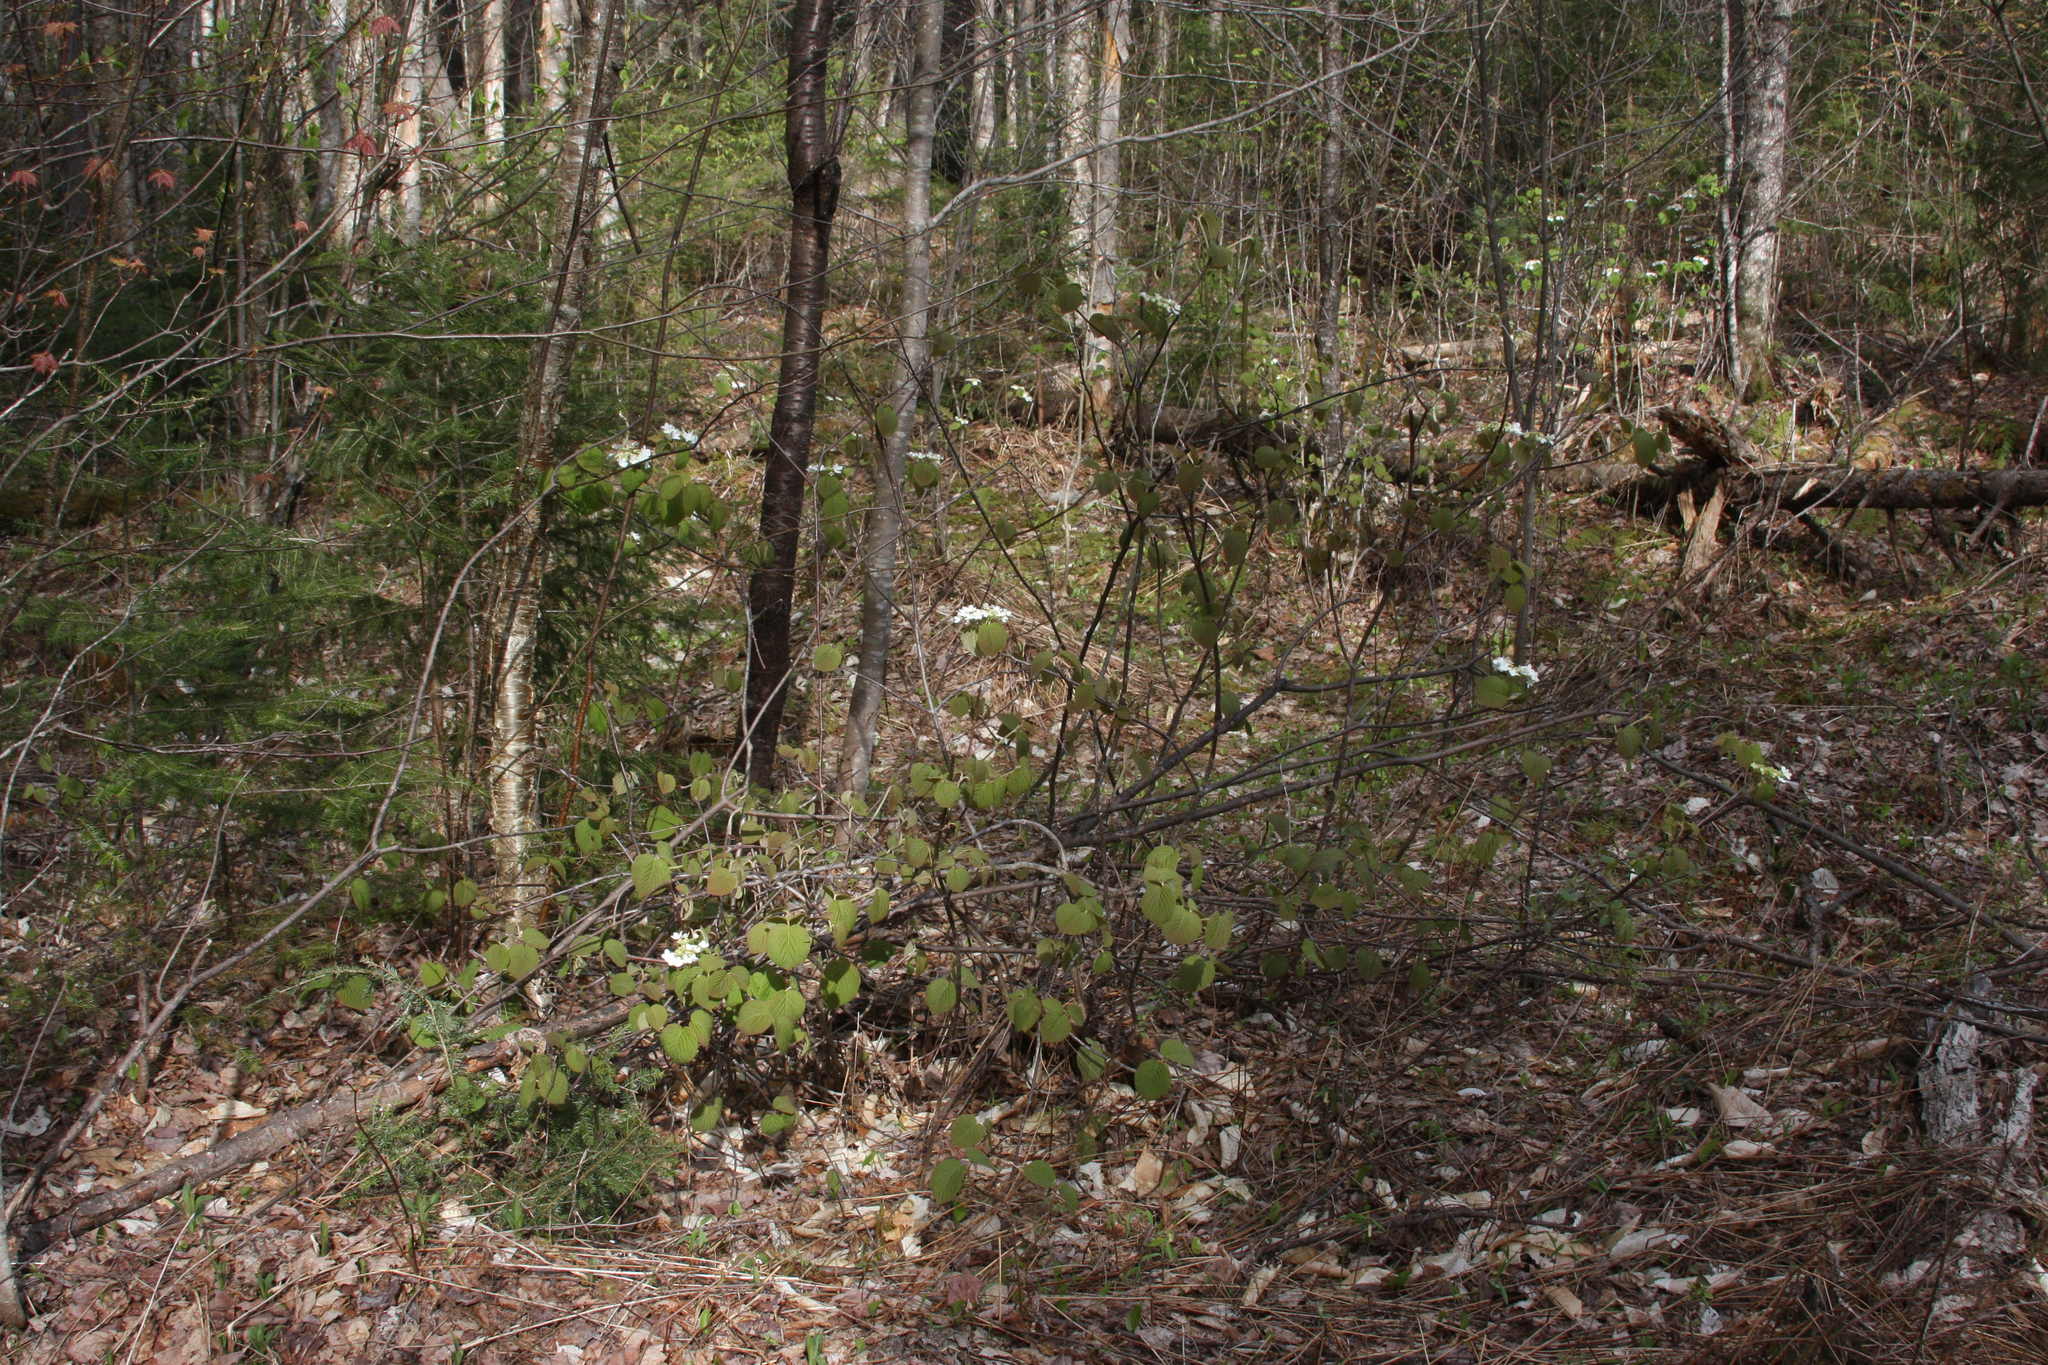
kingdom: Plantae
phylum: Tracheophyta
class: Magnoliopsida
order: Dipsacales
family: Viburnaceae
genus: Viburnum
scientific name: Viburnum lantanoides
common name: Hobblebush
